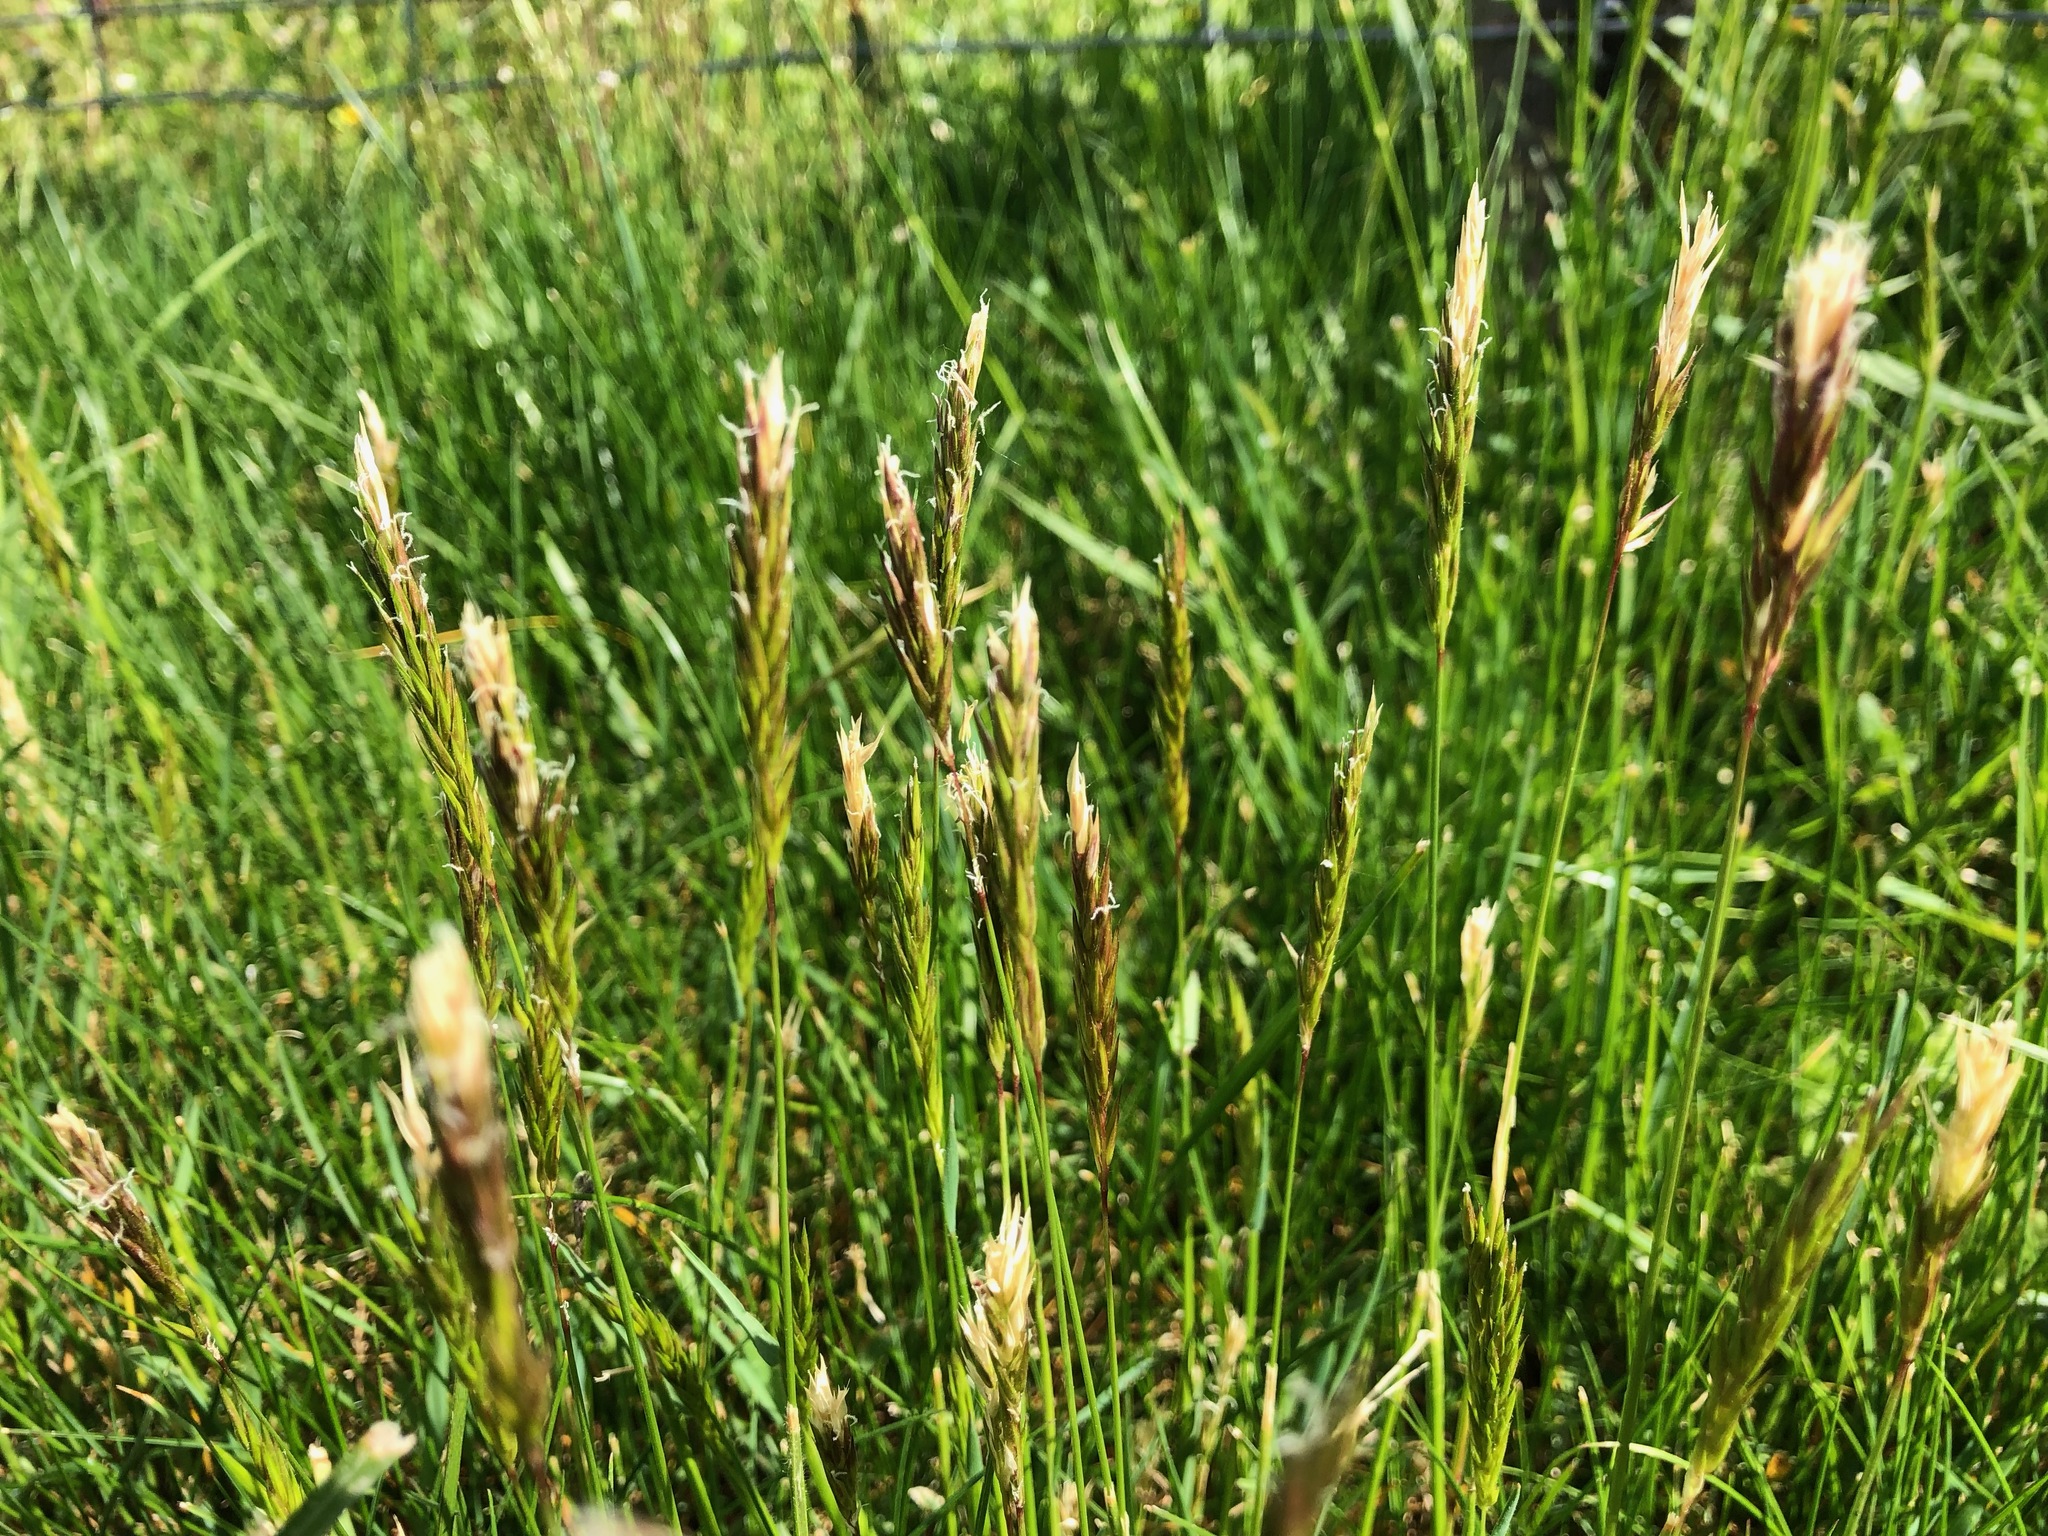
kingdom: Plantae
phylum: Tracheophyta
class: Liliopsida
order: Poales
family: Poaceae
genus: Anthoxanthum
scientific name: Anthoxanthum odoratum
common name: Sweet vernalgrass
